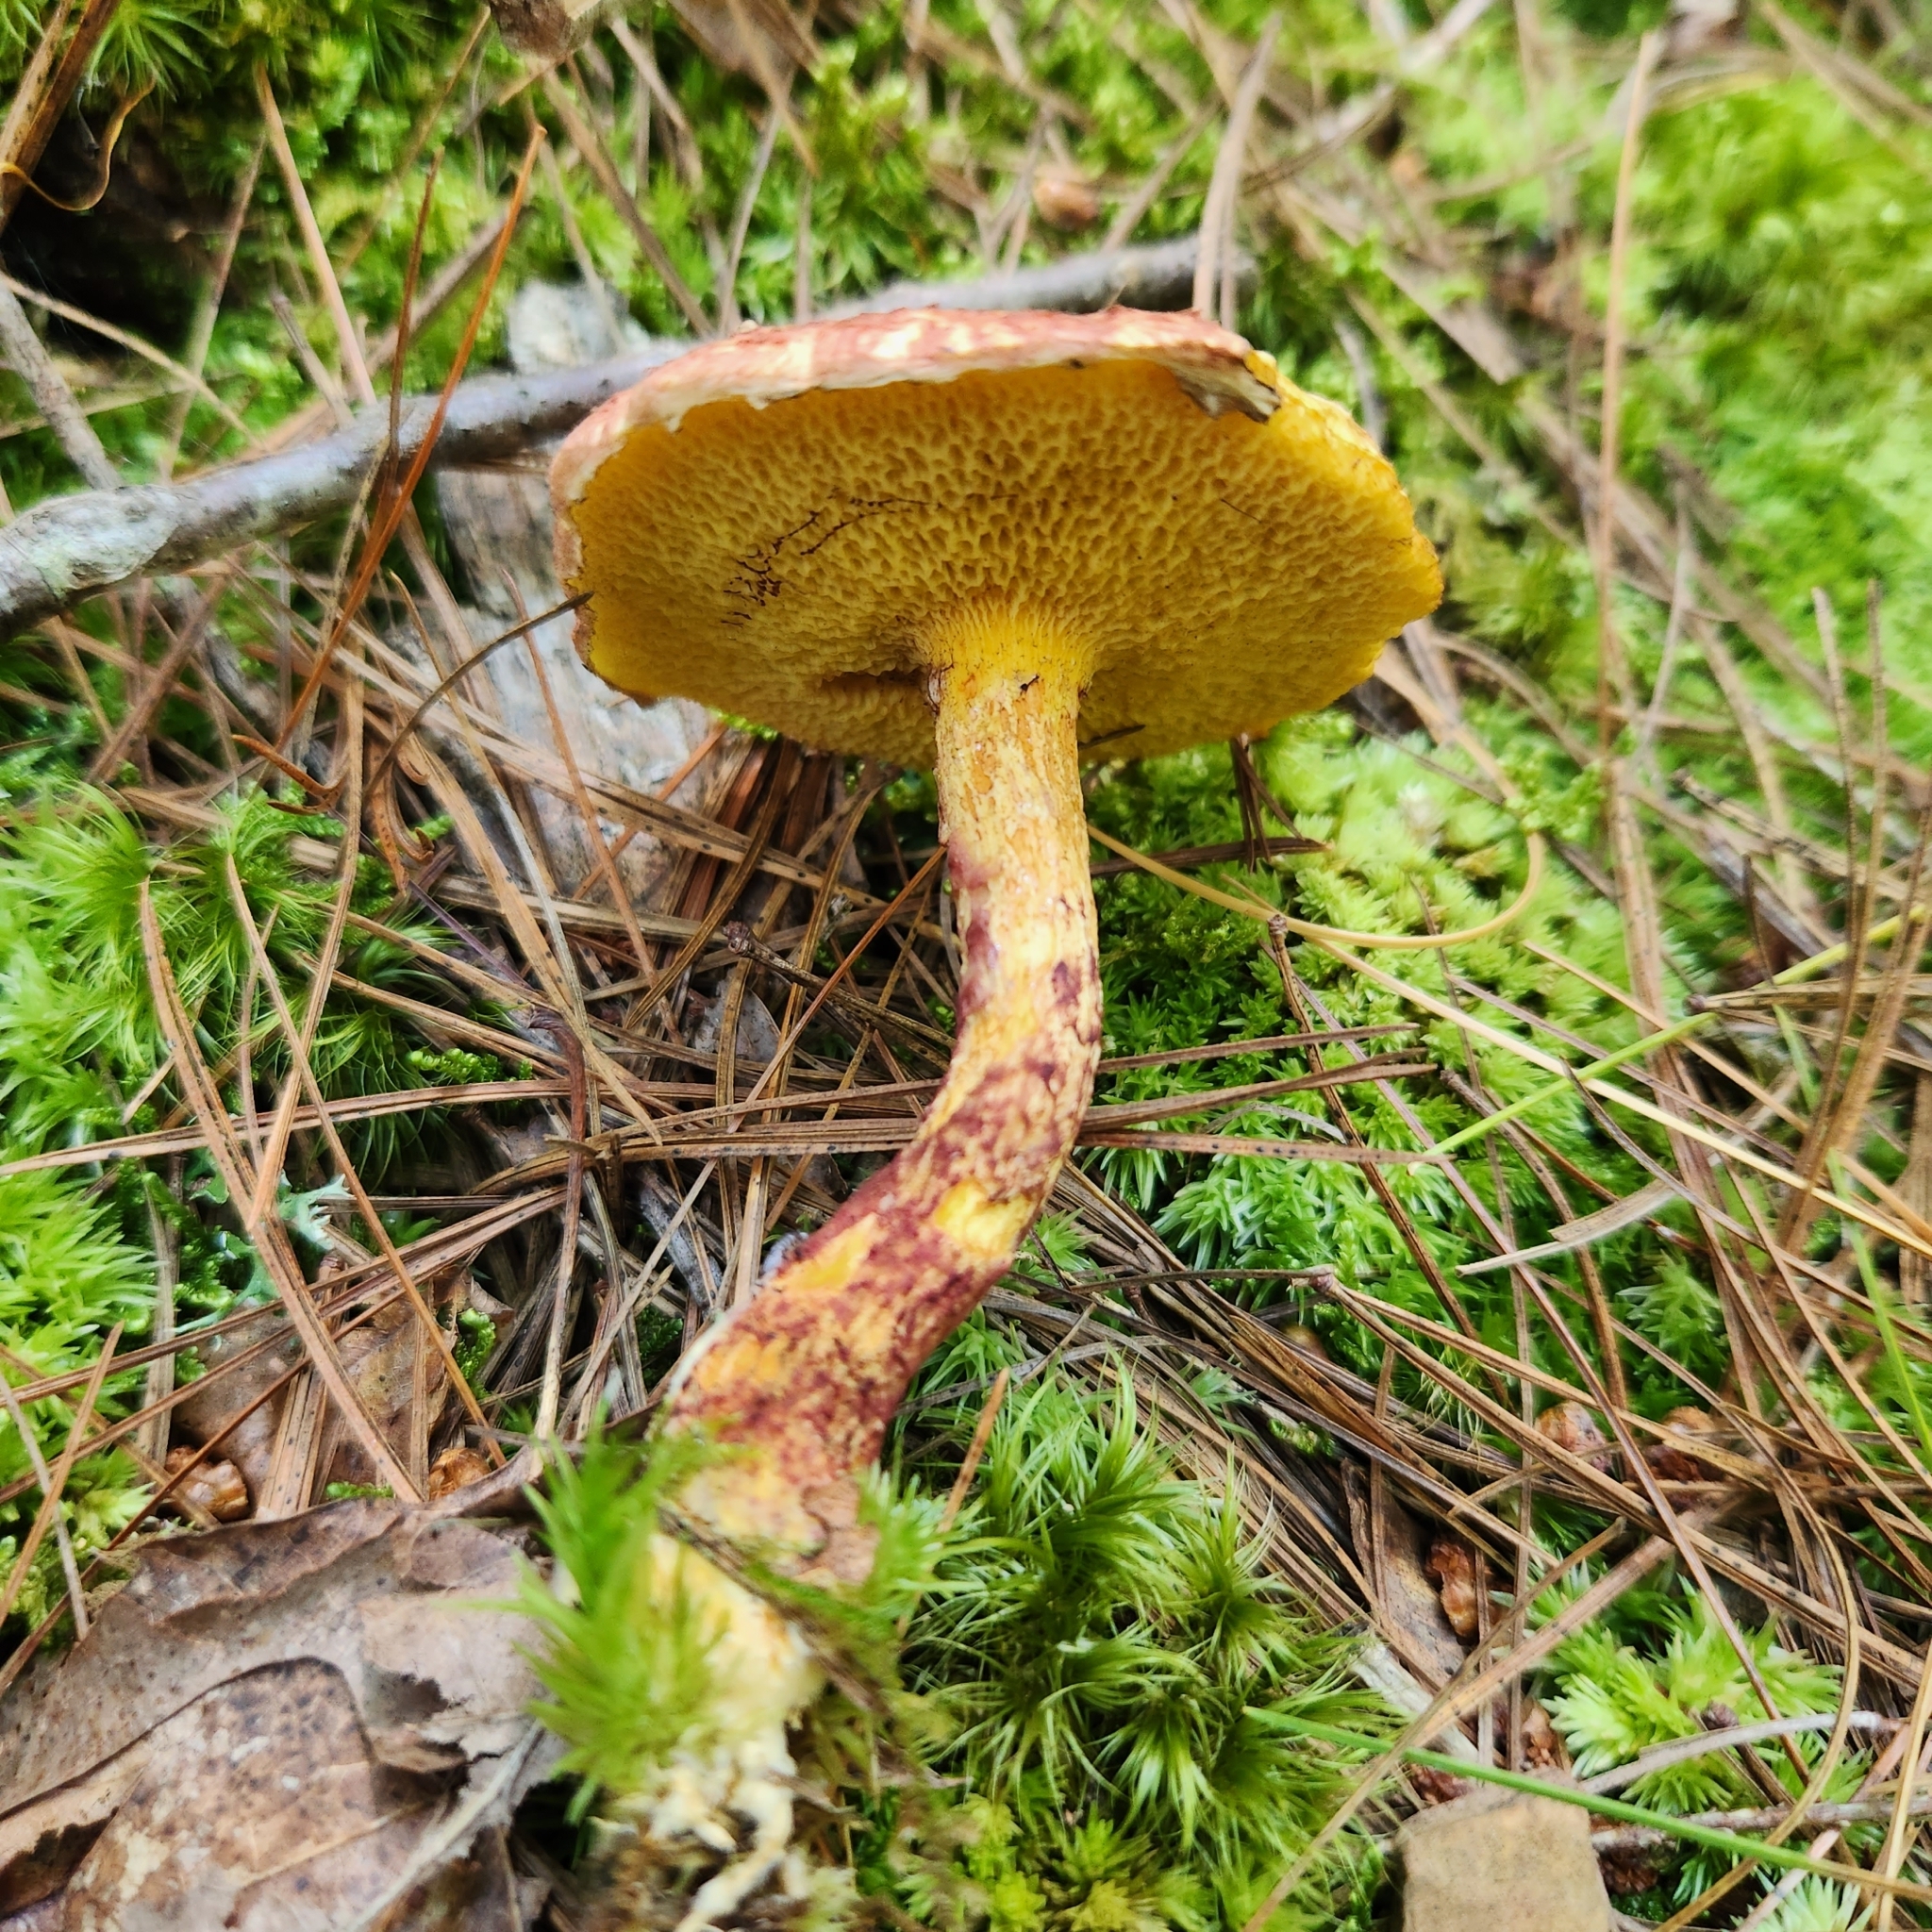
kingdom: Fungi
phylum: Basidiomycota
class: Agaricomycetes
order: Boletales
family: Suillaceae
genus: Suillus
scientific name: Suillus spraguei
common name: Painted suillus
